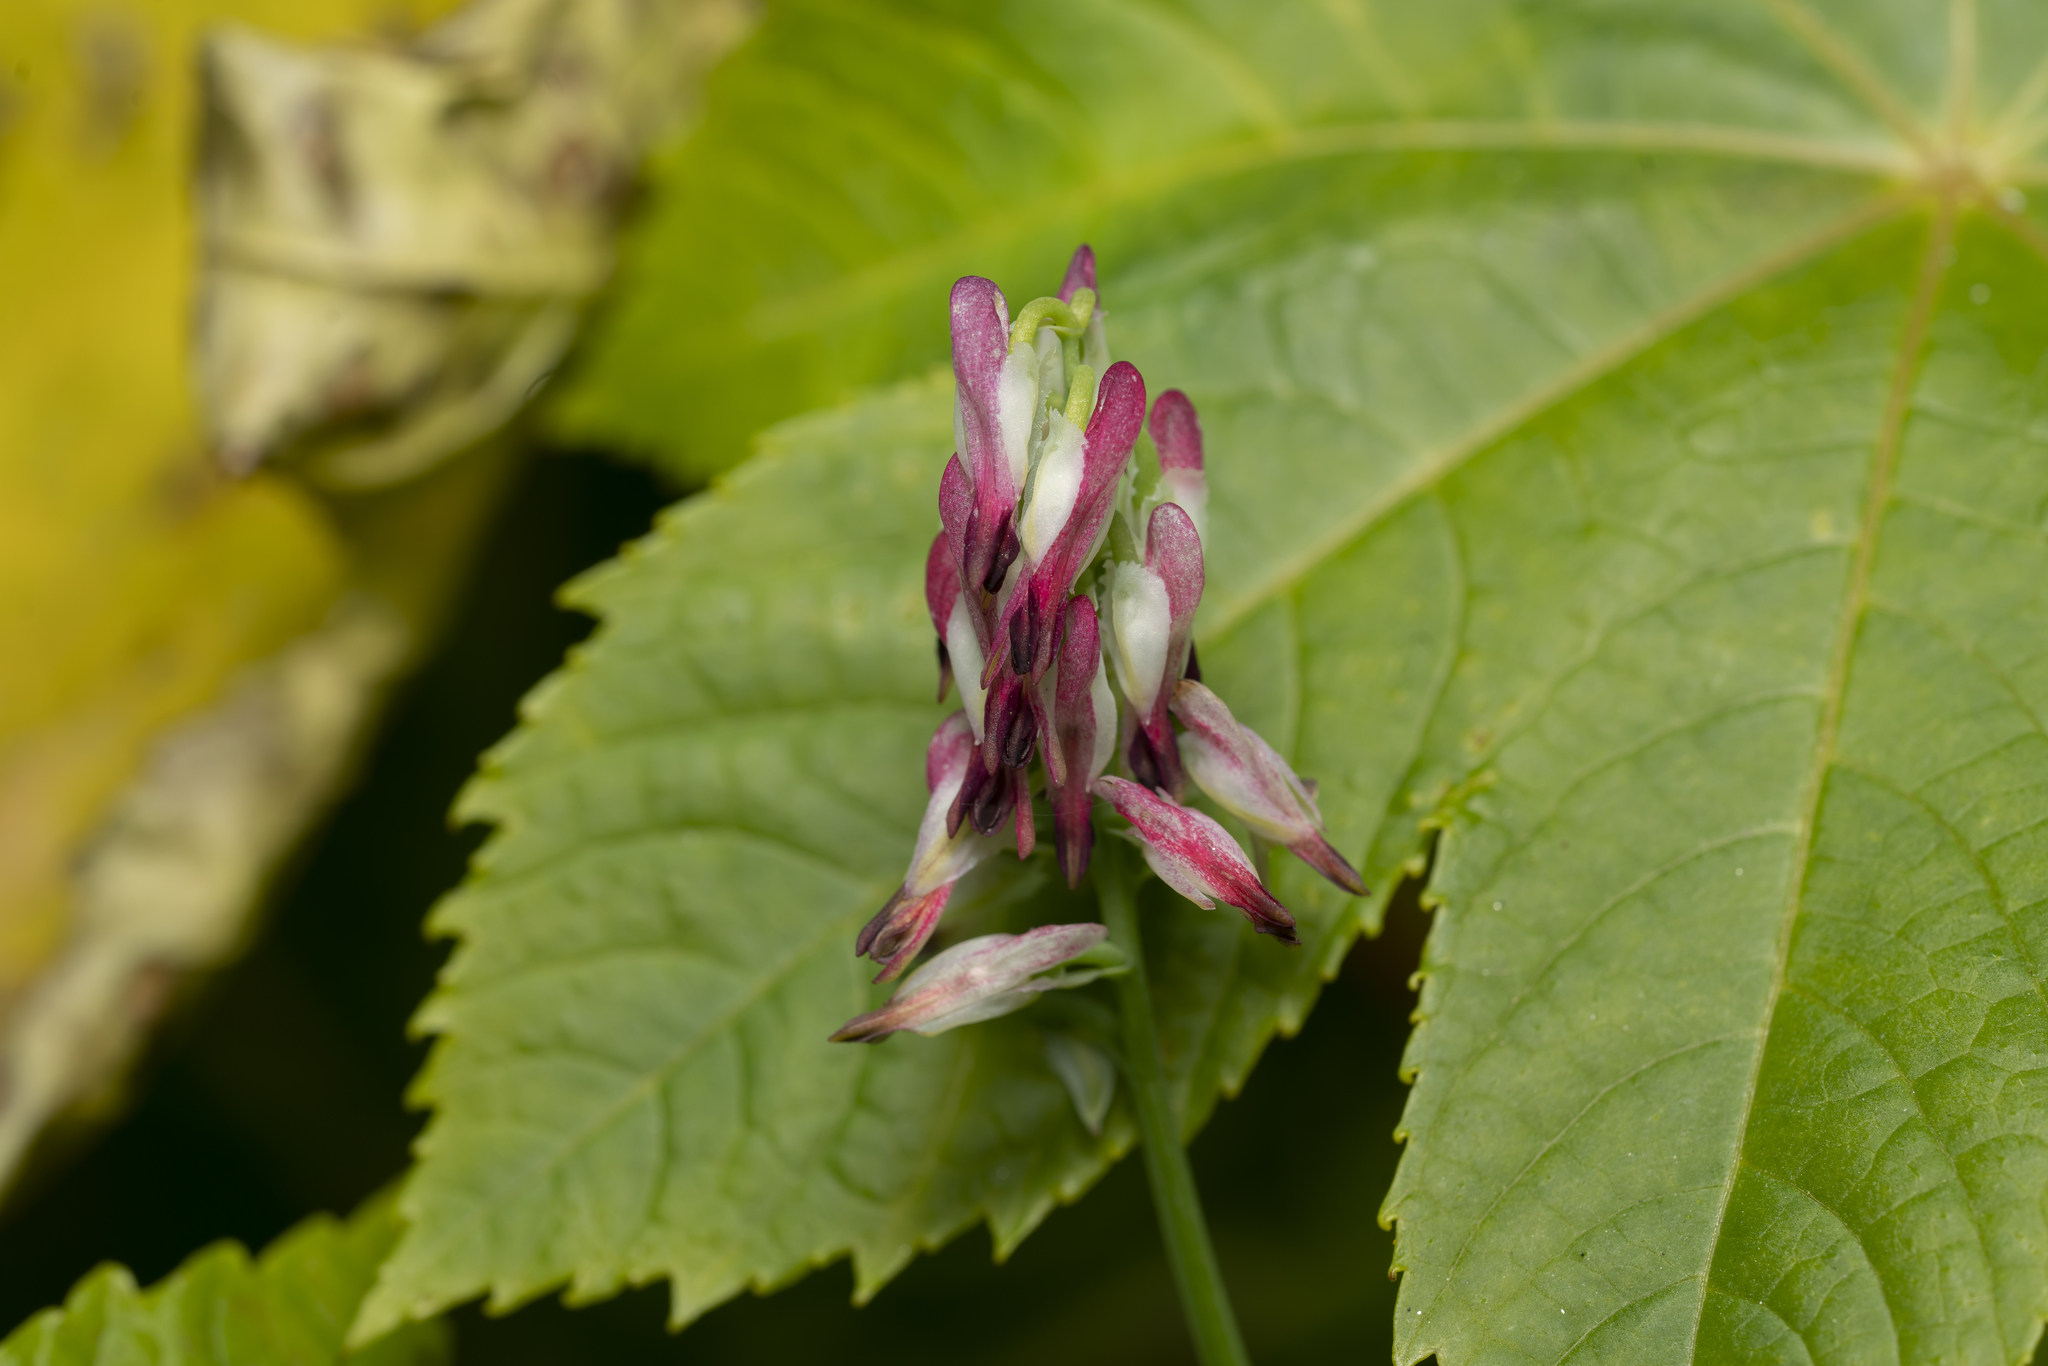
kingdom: Plantae
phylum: Tracheophyta
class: Magnoliopsida
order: Ranunculales
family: Papaveraceae
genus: Fumaria
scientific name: Fumaria capreolata
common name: White ramping-fumitory
